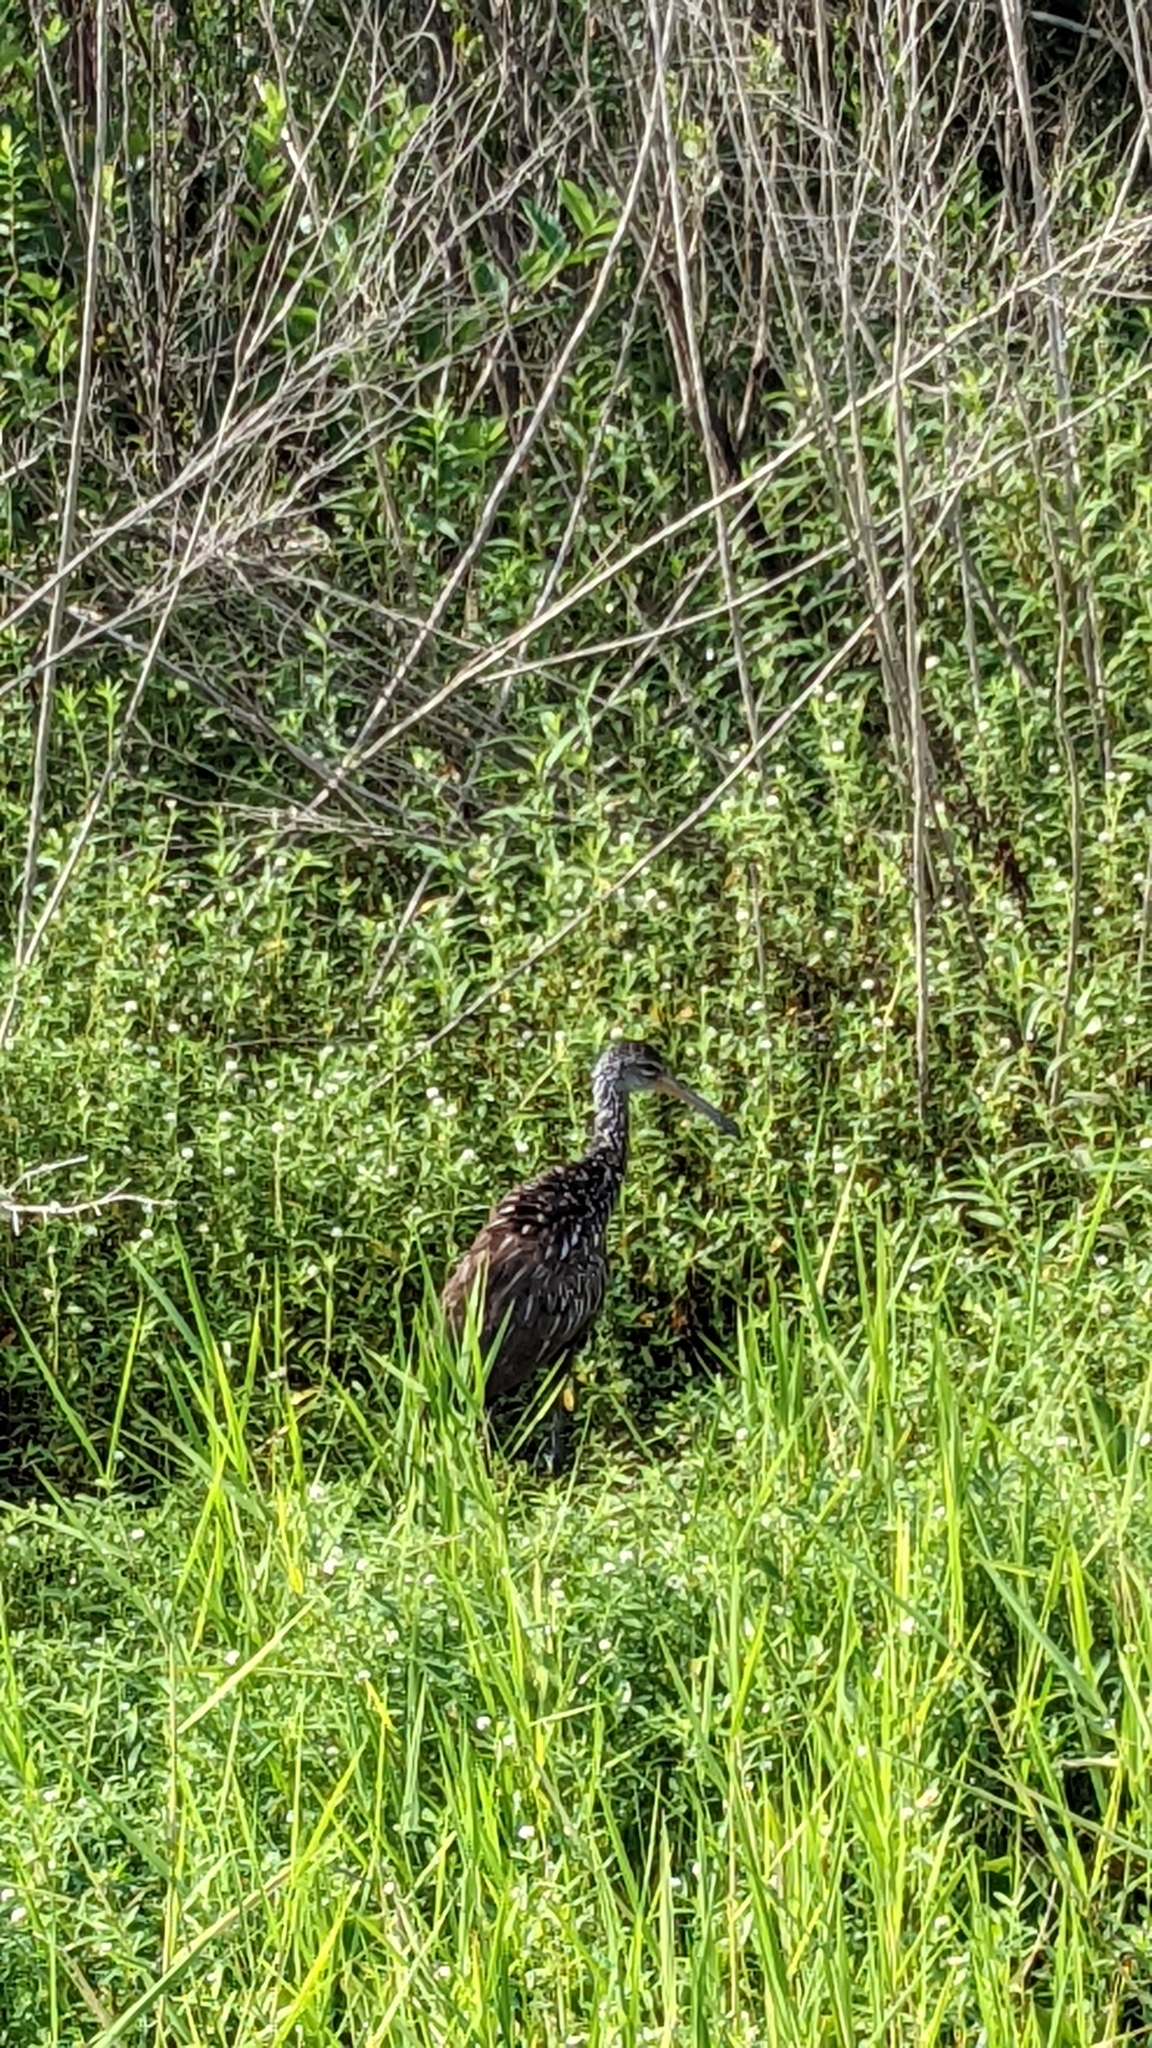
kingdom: Animalia
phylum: Chordata
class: Aves
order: Gruiformes
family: Aramidae
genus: Aramus
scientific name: Aramus guarauna
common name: Limpkin
